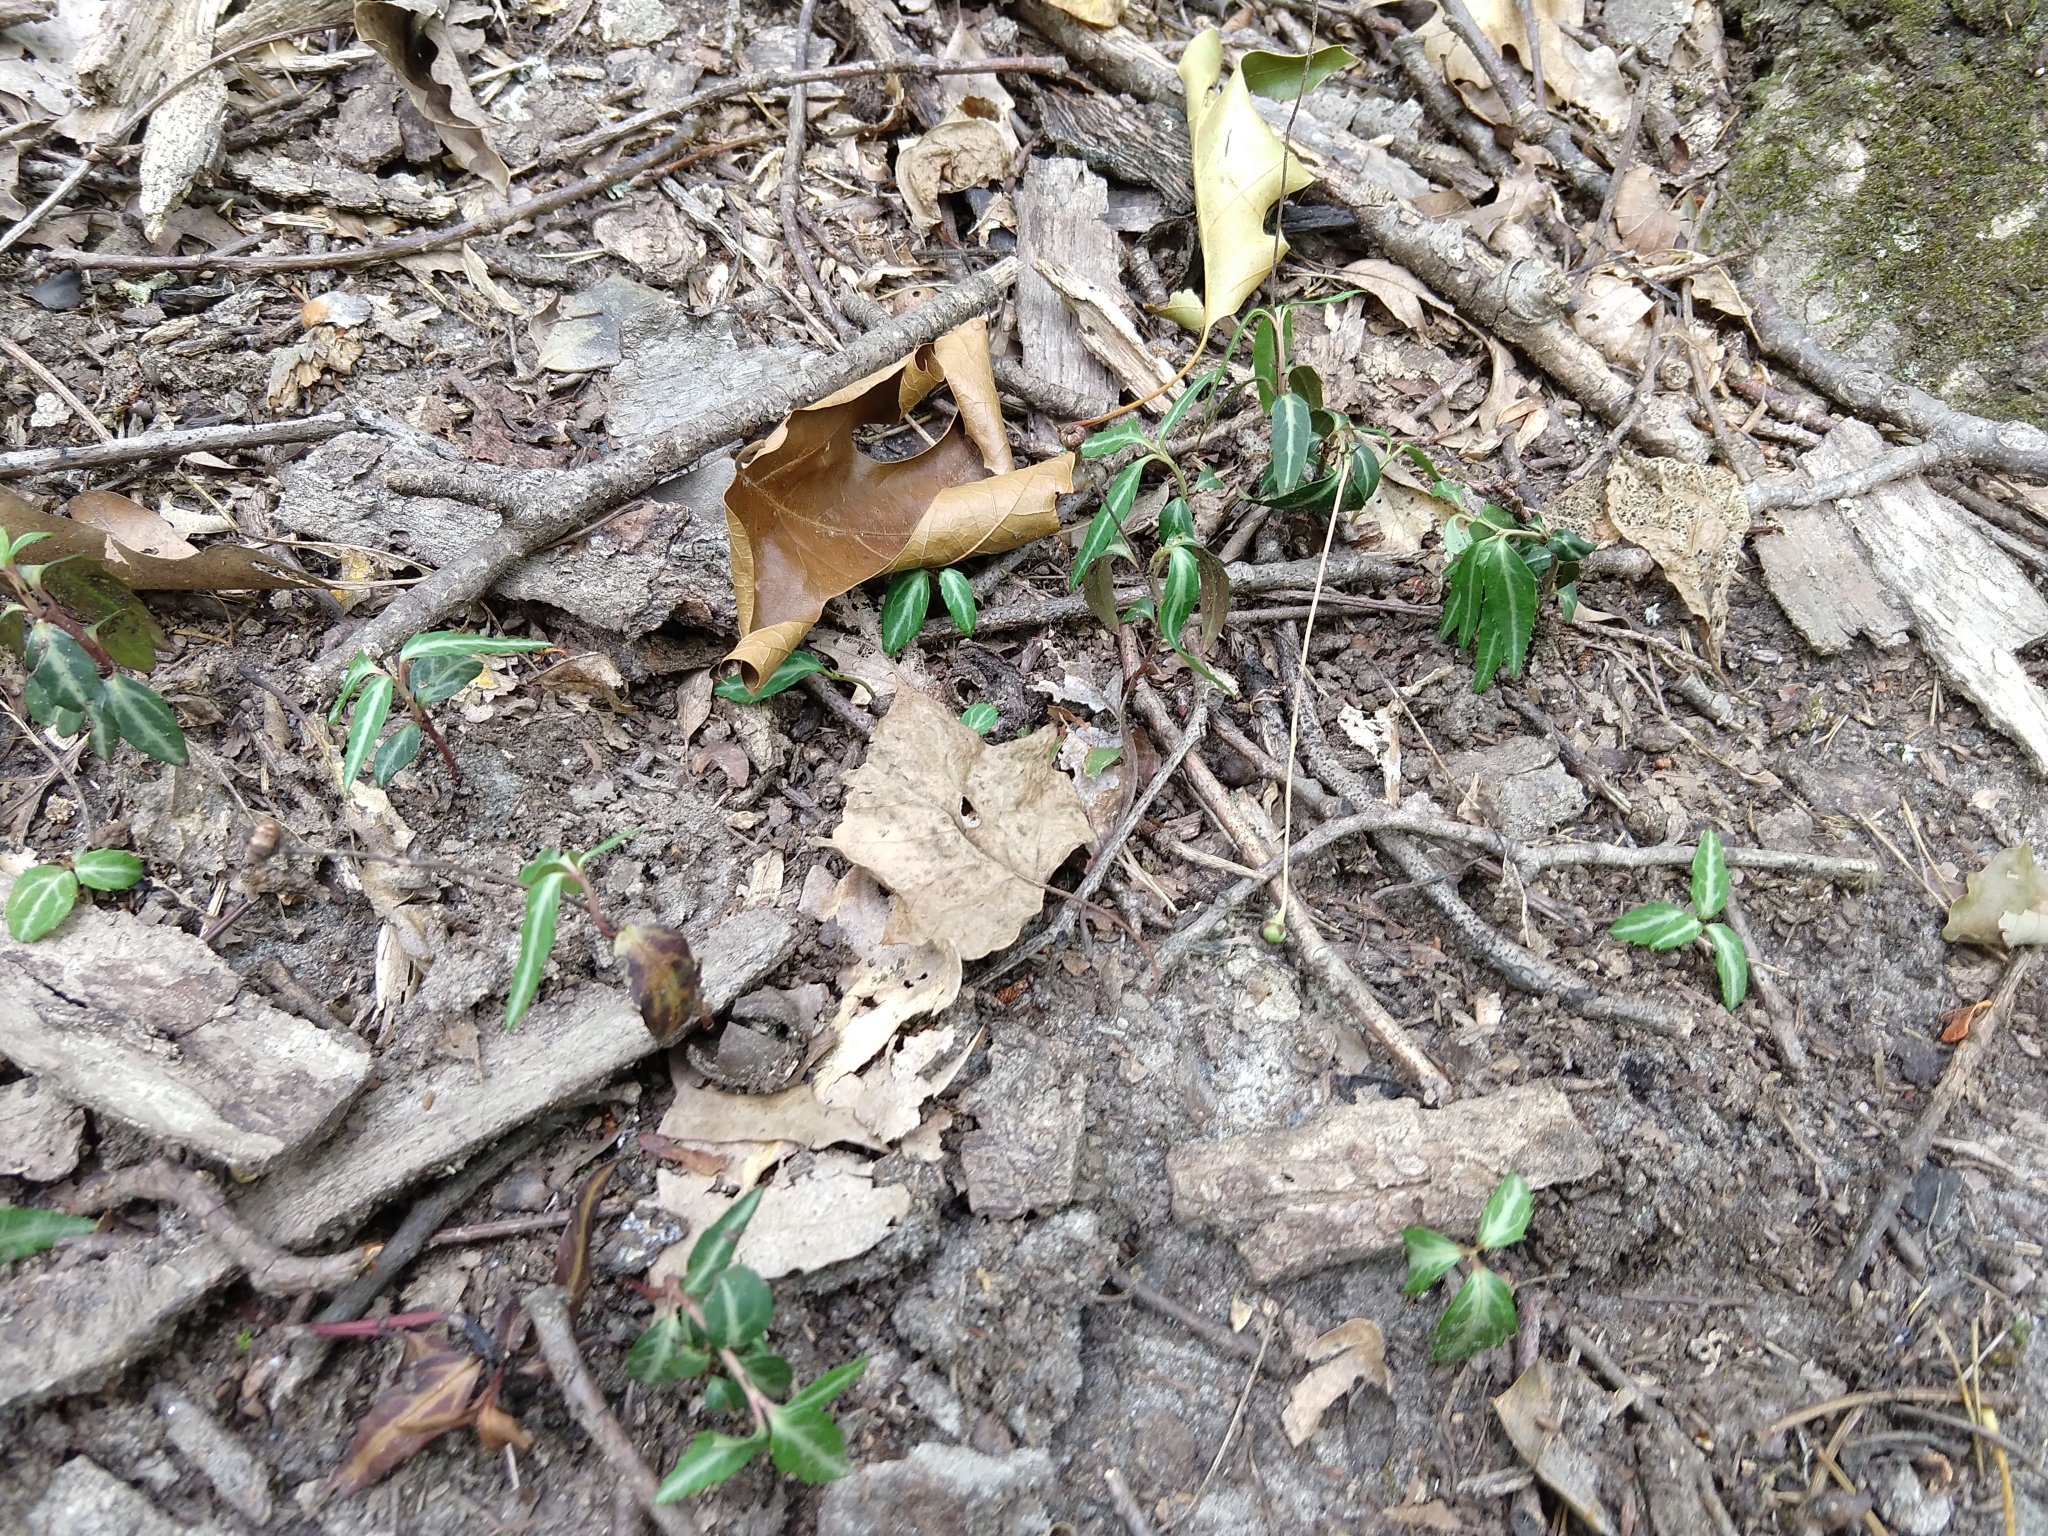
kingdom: Plantae
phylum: Tracheophyta
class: Magnoliopsida
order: Ericales
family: Ericaceae
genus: Chimaphila
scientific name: Chimaphila maculata
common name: Spotted pipsissewa
